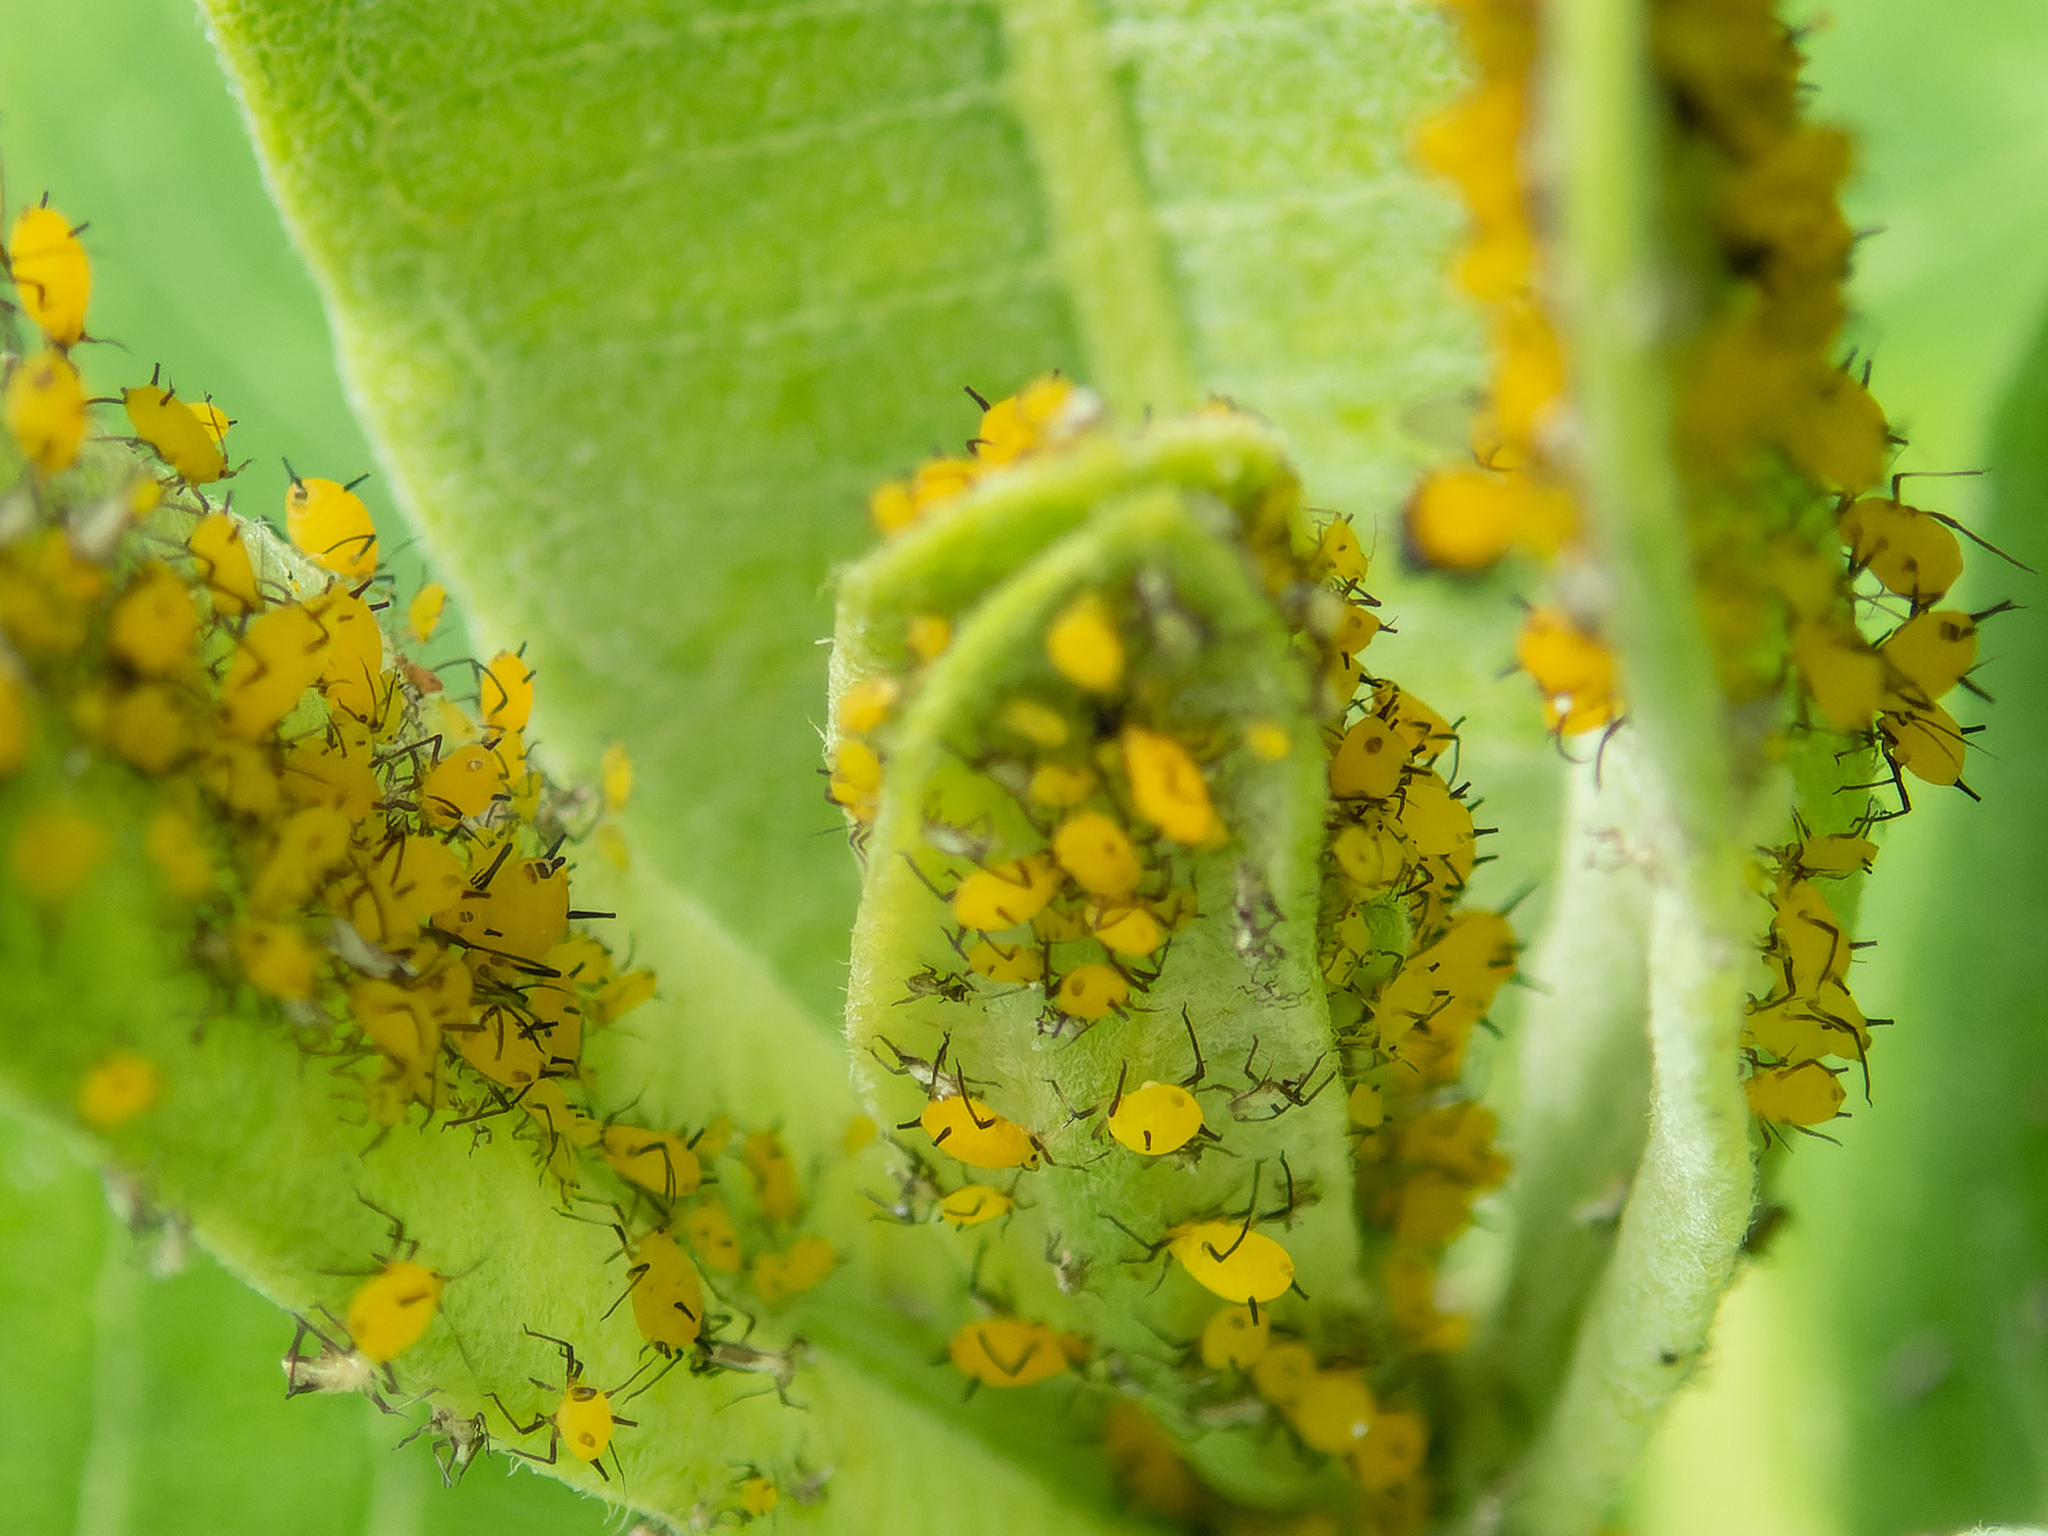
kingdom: Animalia
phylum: Arthropoda
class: Insecta
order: Hemiptera
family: Aphididae
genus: Aphis
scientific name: Aphis nerii
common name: Oleander aphid
